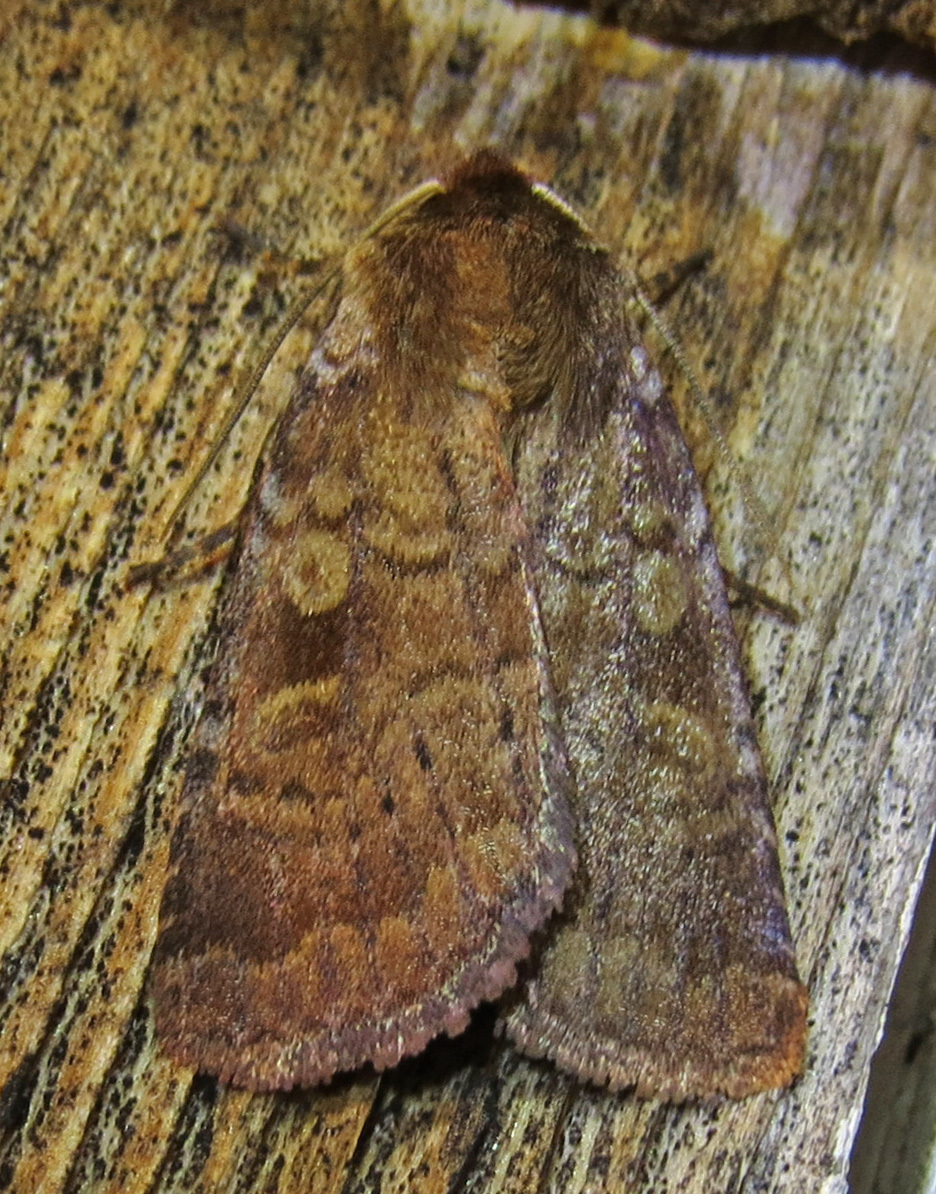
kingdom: Animalia
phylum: Arthropoda
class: Insecta
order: Lepidoptera
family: Noctuidae
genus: Lycophotia
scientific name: Lycophotia phyllophora
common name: Lycophotia moth
